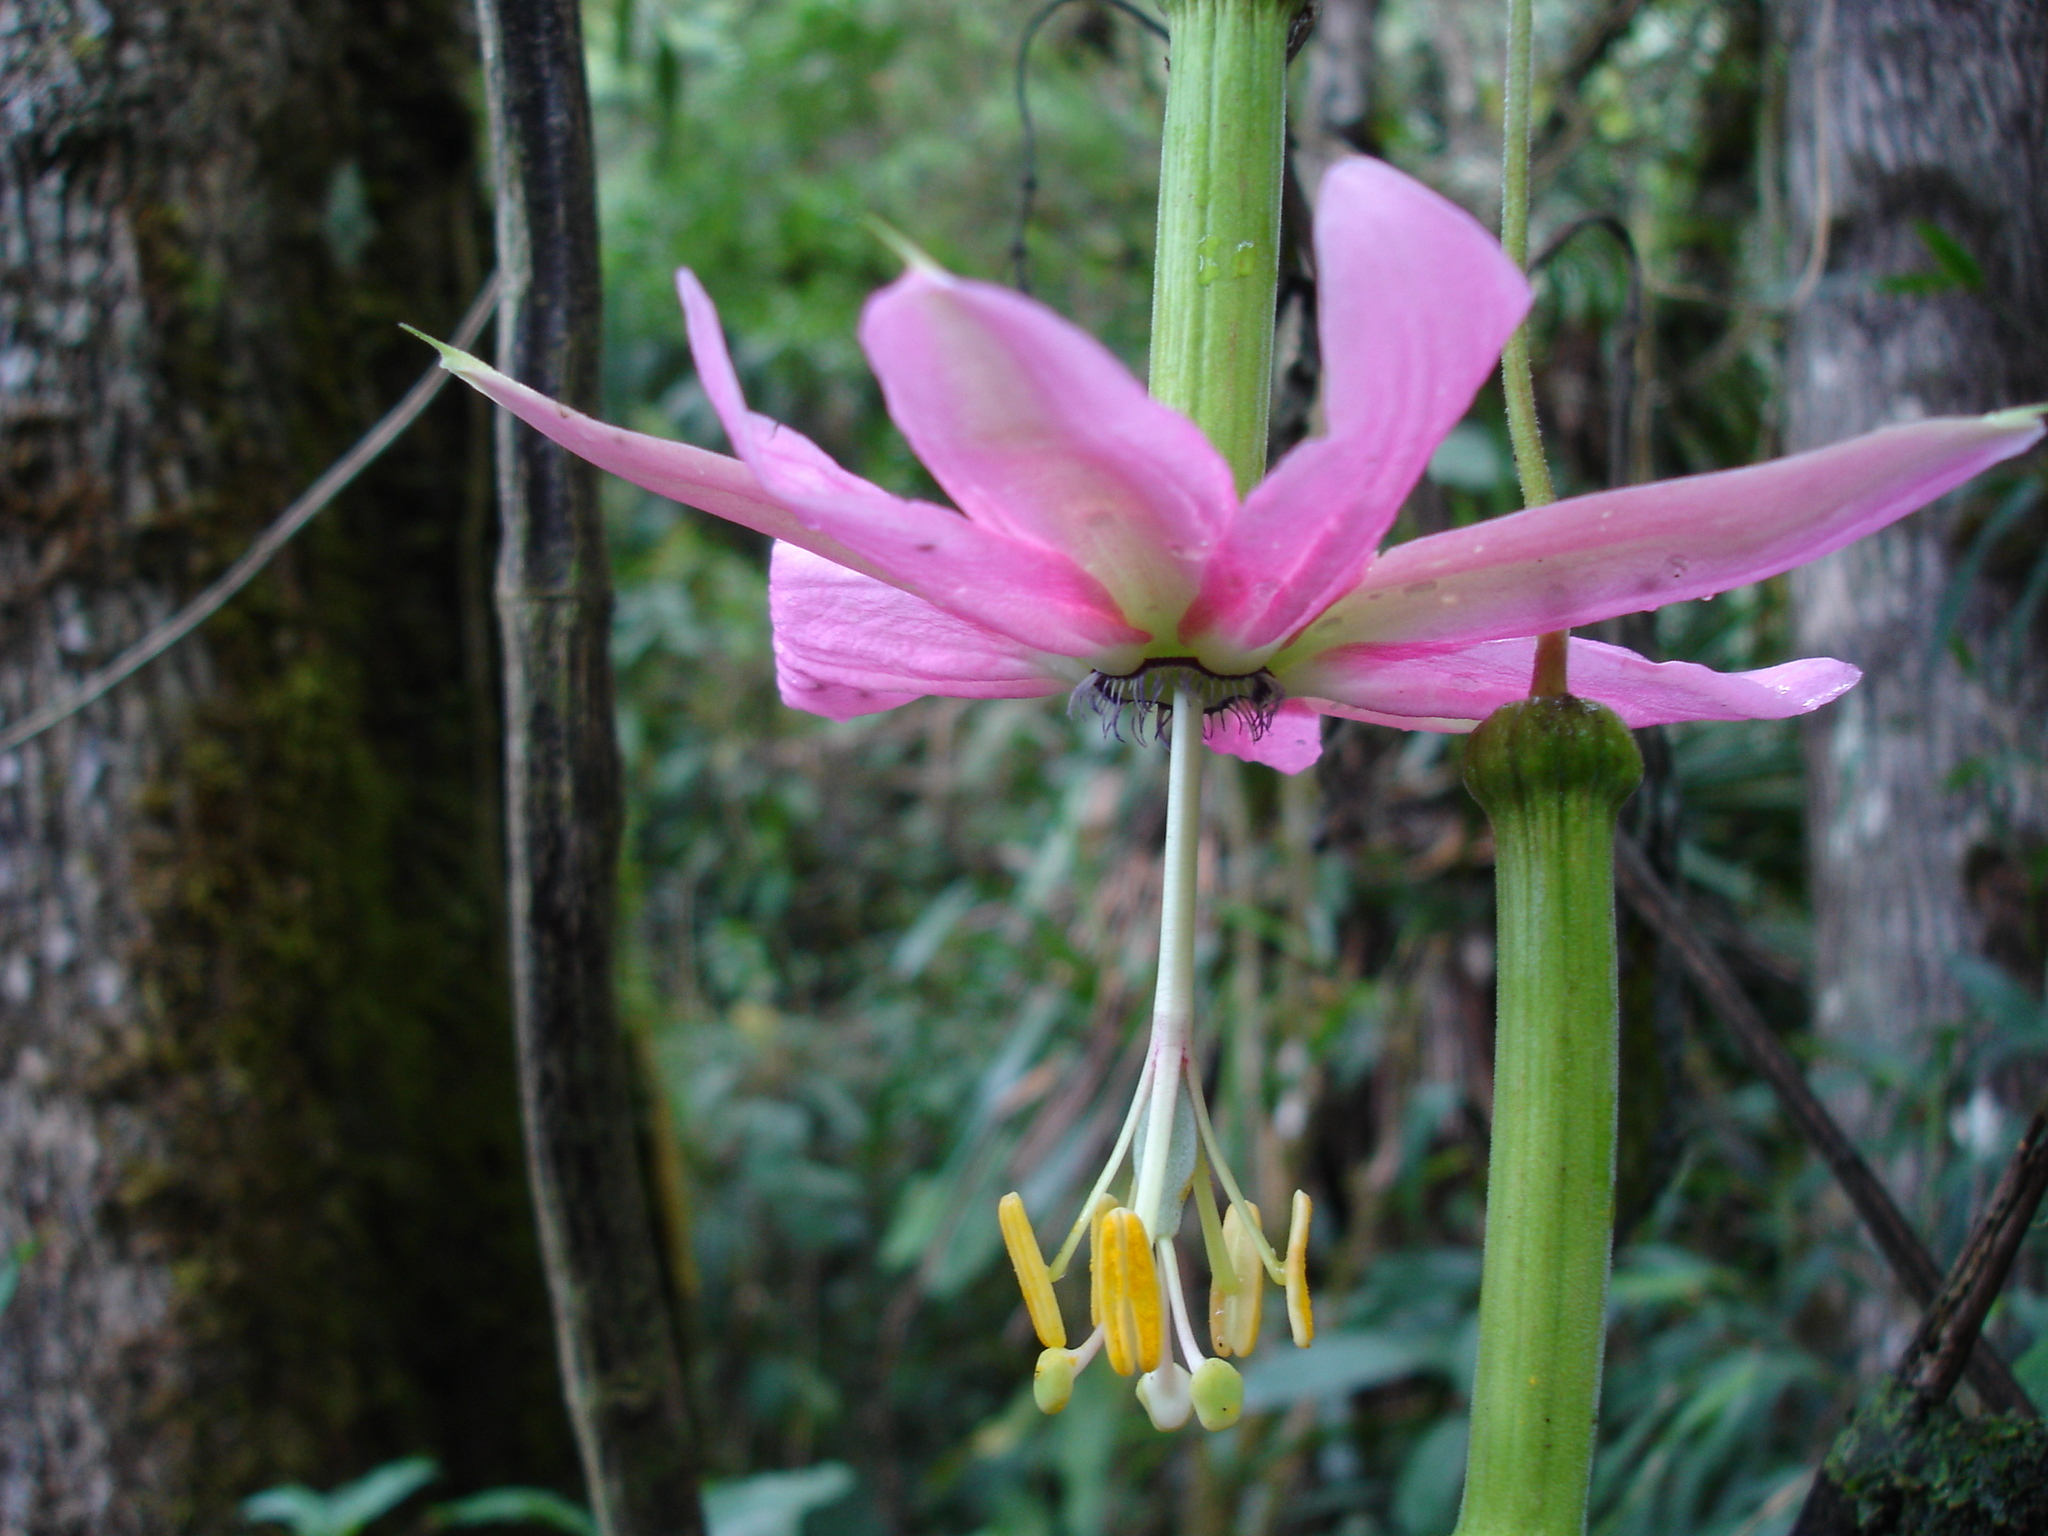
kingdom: Plantae
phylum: Tracheophyta
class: Magnoliopsida
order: Malpighiales
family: Passifloraceae
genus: Passiflora
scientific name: Passiflora flexipes
